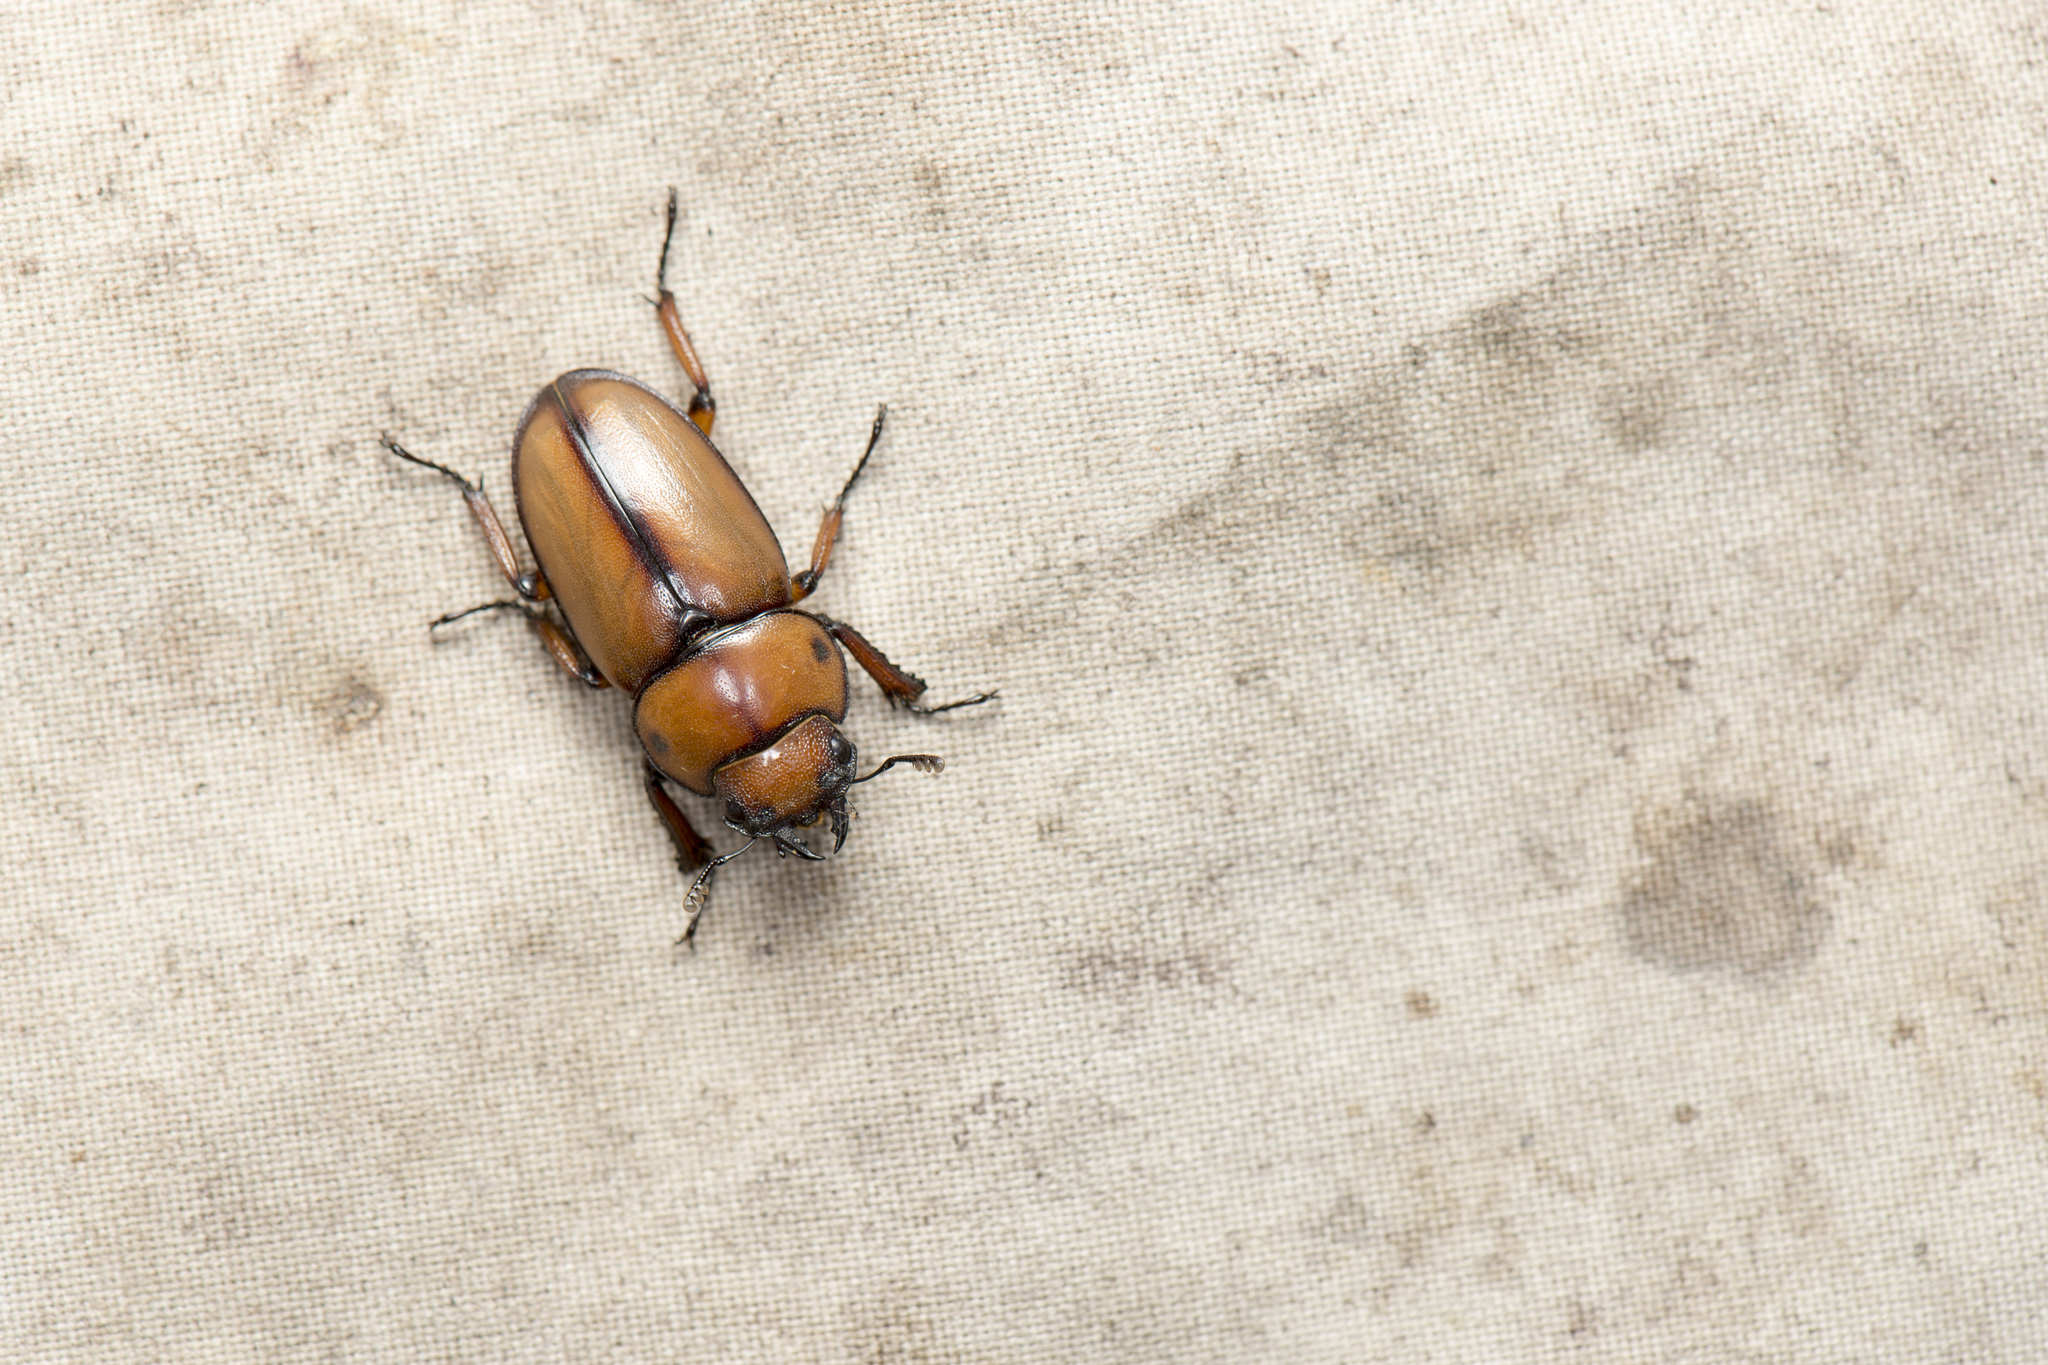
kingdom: Animalia
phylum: Arthropoda
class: Insecta
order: Coleoptera
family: Lucanidae
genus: Prosopocoilus
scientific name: Prosopocoilus astacoides
